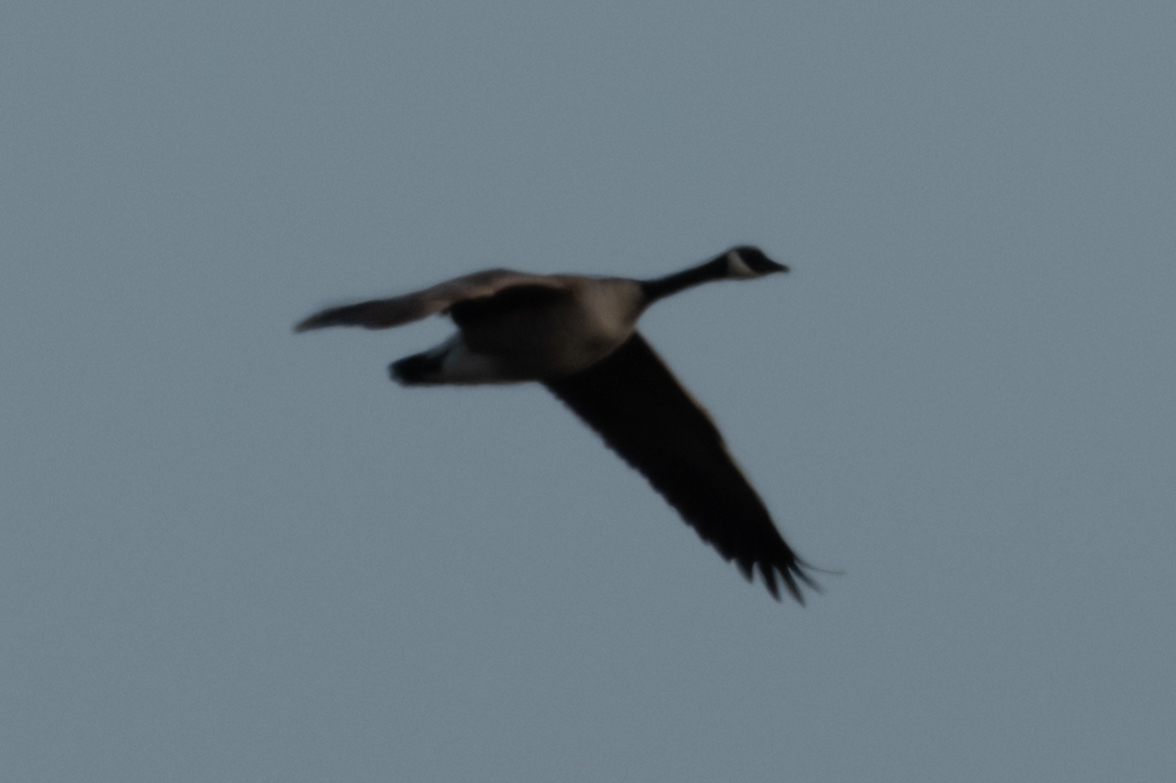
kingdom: Animalia
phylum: Chordata
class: Aves
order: Anseriformes
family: Anatidae
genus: Branta
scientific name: Branta canadensis
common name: Canada goose
